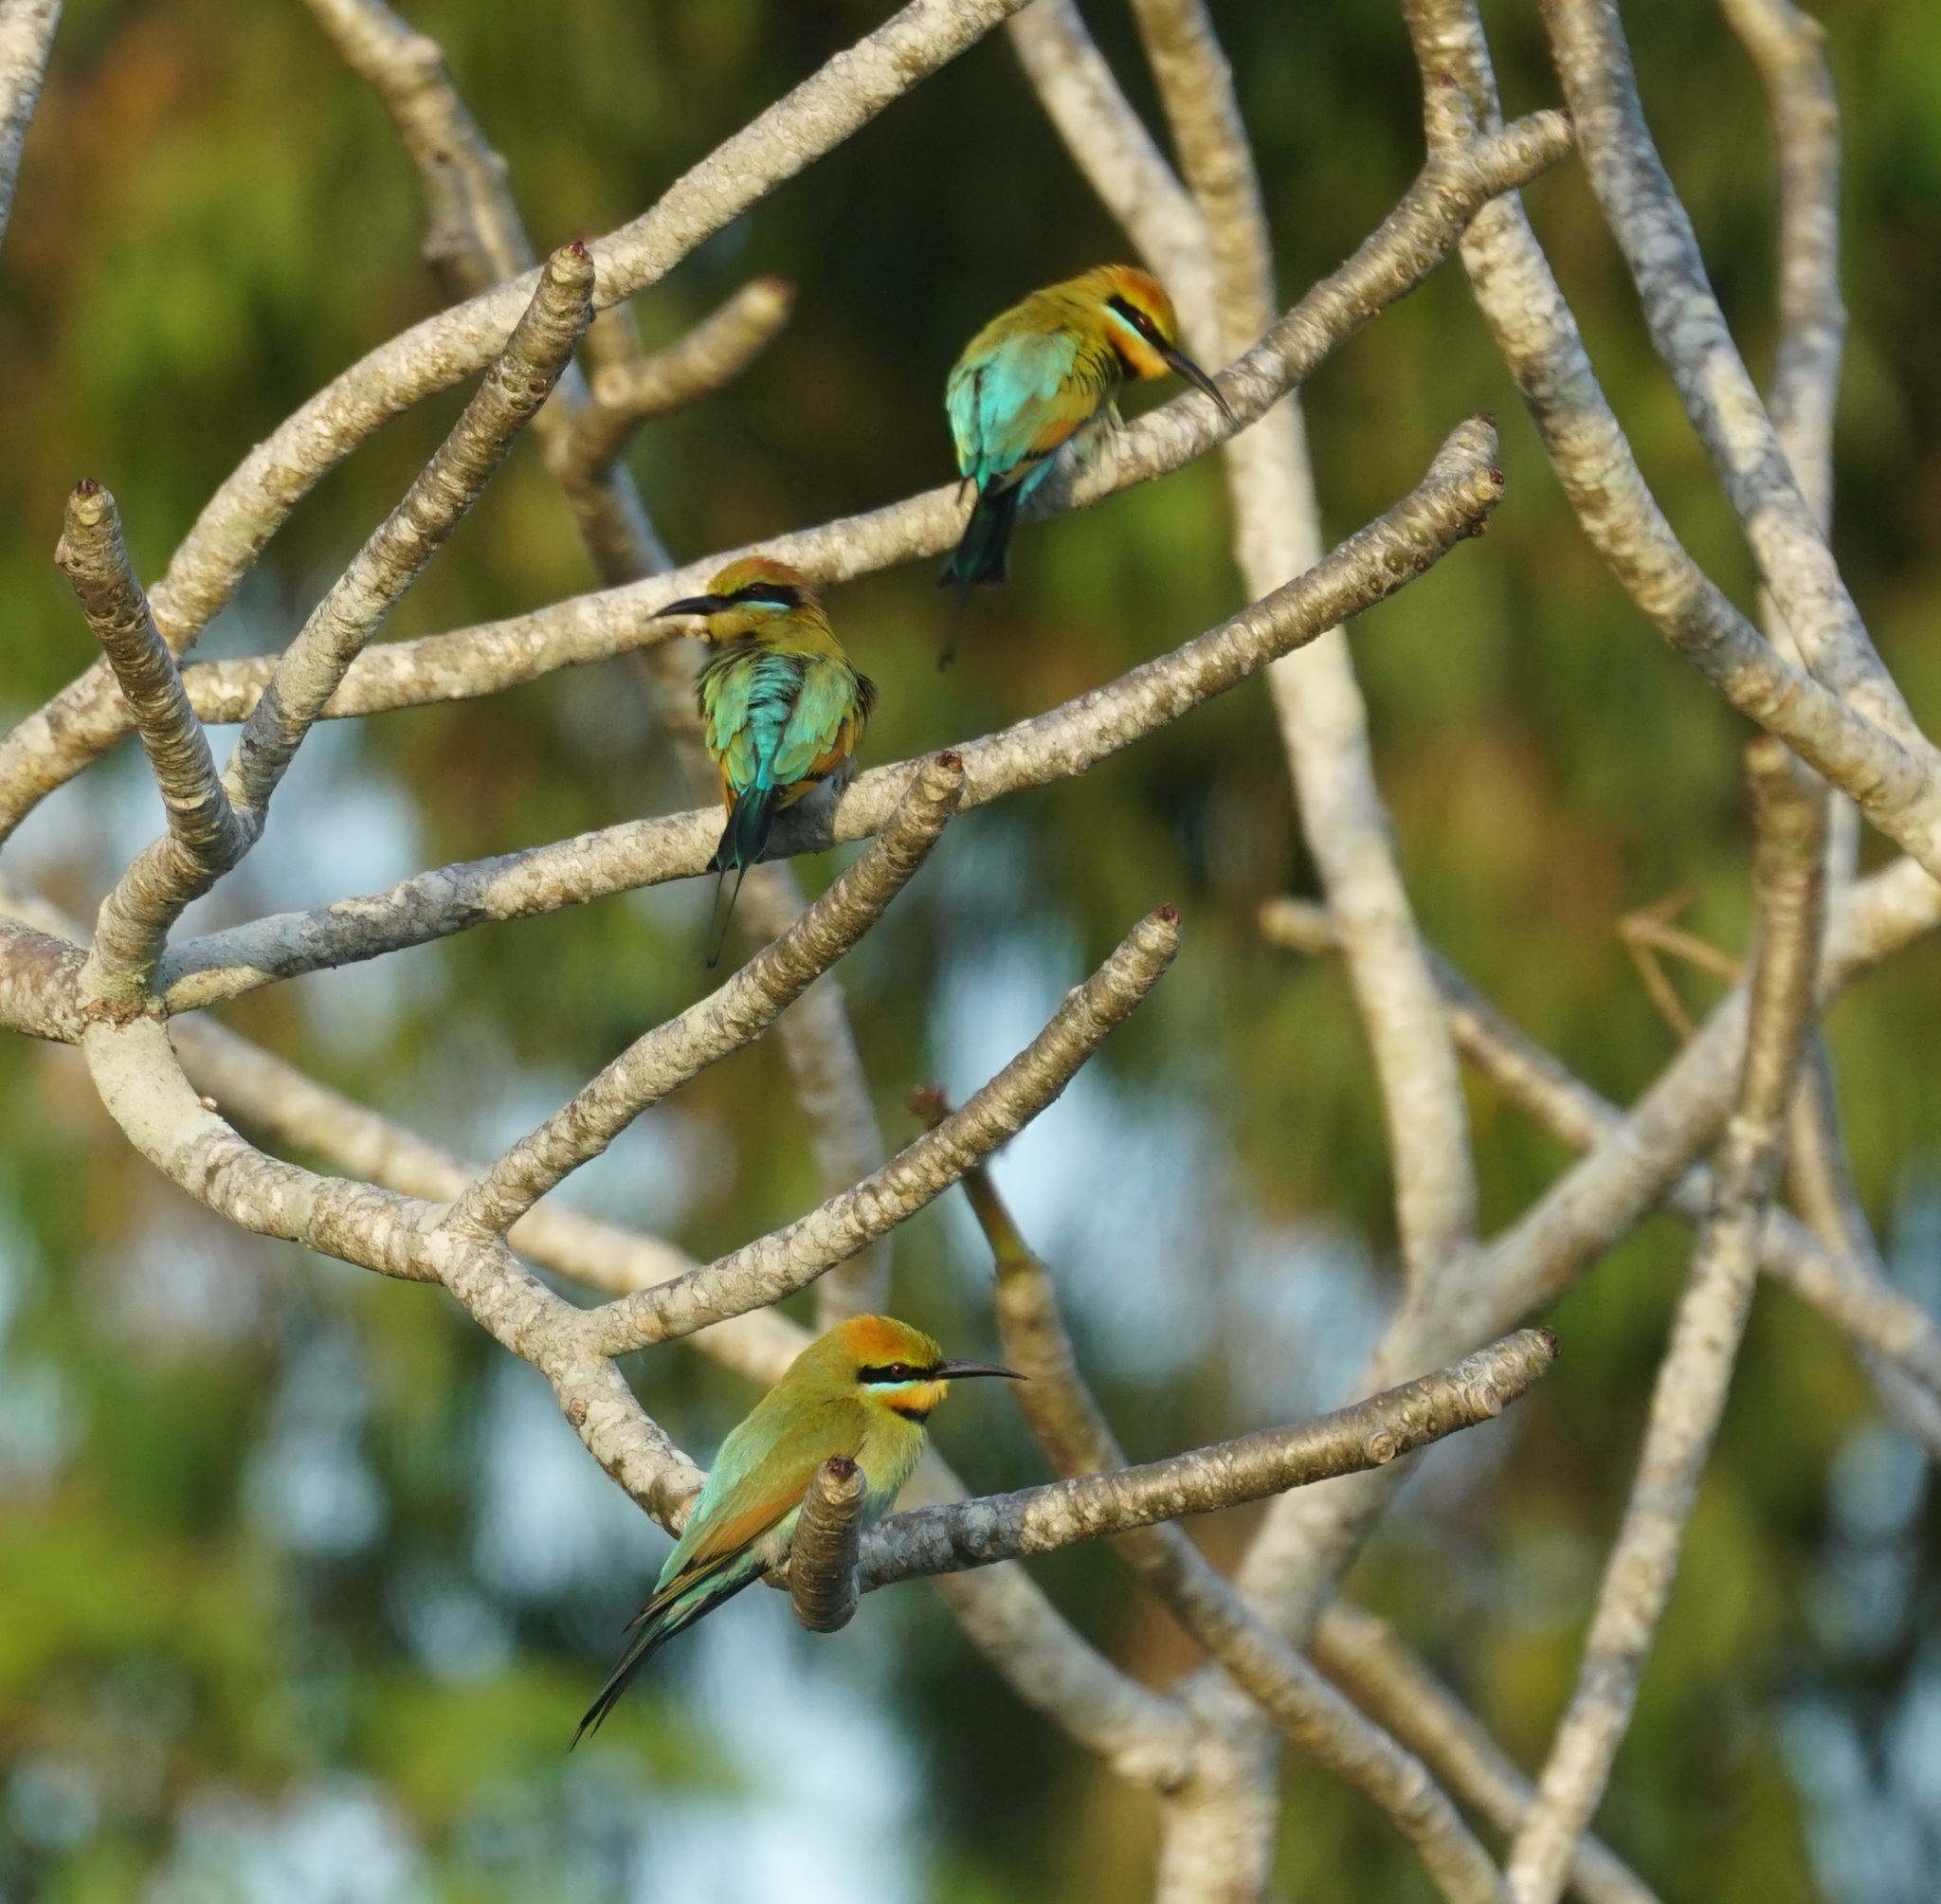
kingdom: Animalia
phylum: Chordata
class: Aves
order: Coraciiformes
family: Meropidae
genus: Merops
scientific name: Merops ornatus
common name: Rainbow bee-eater
